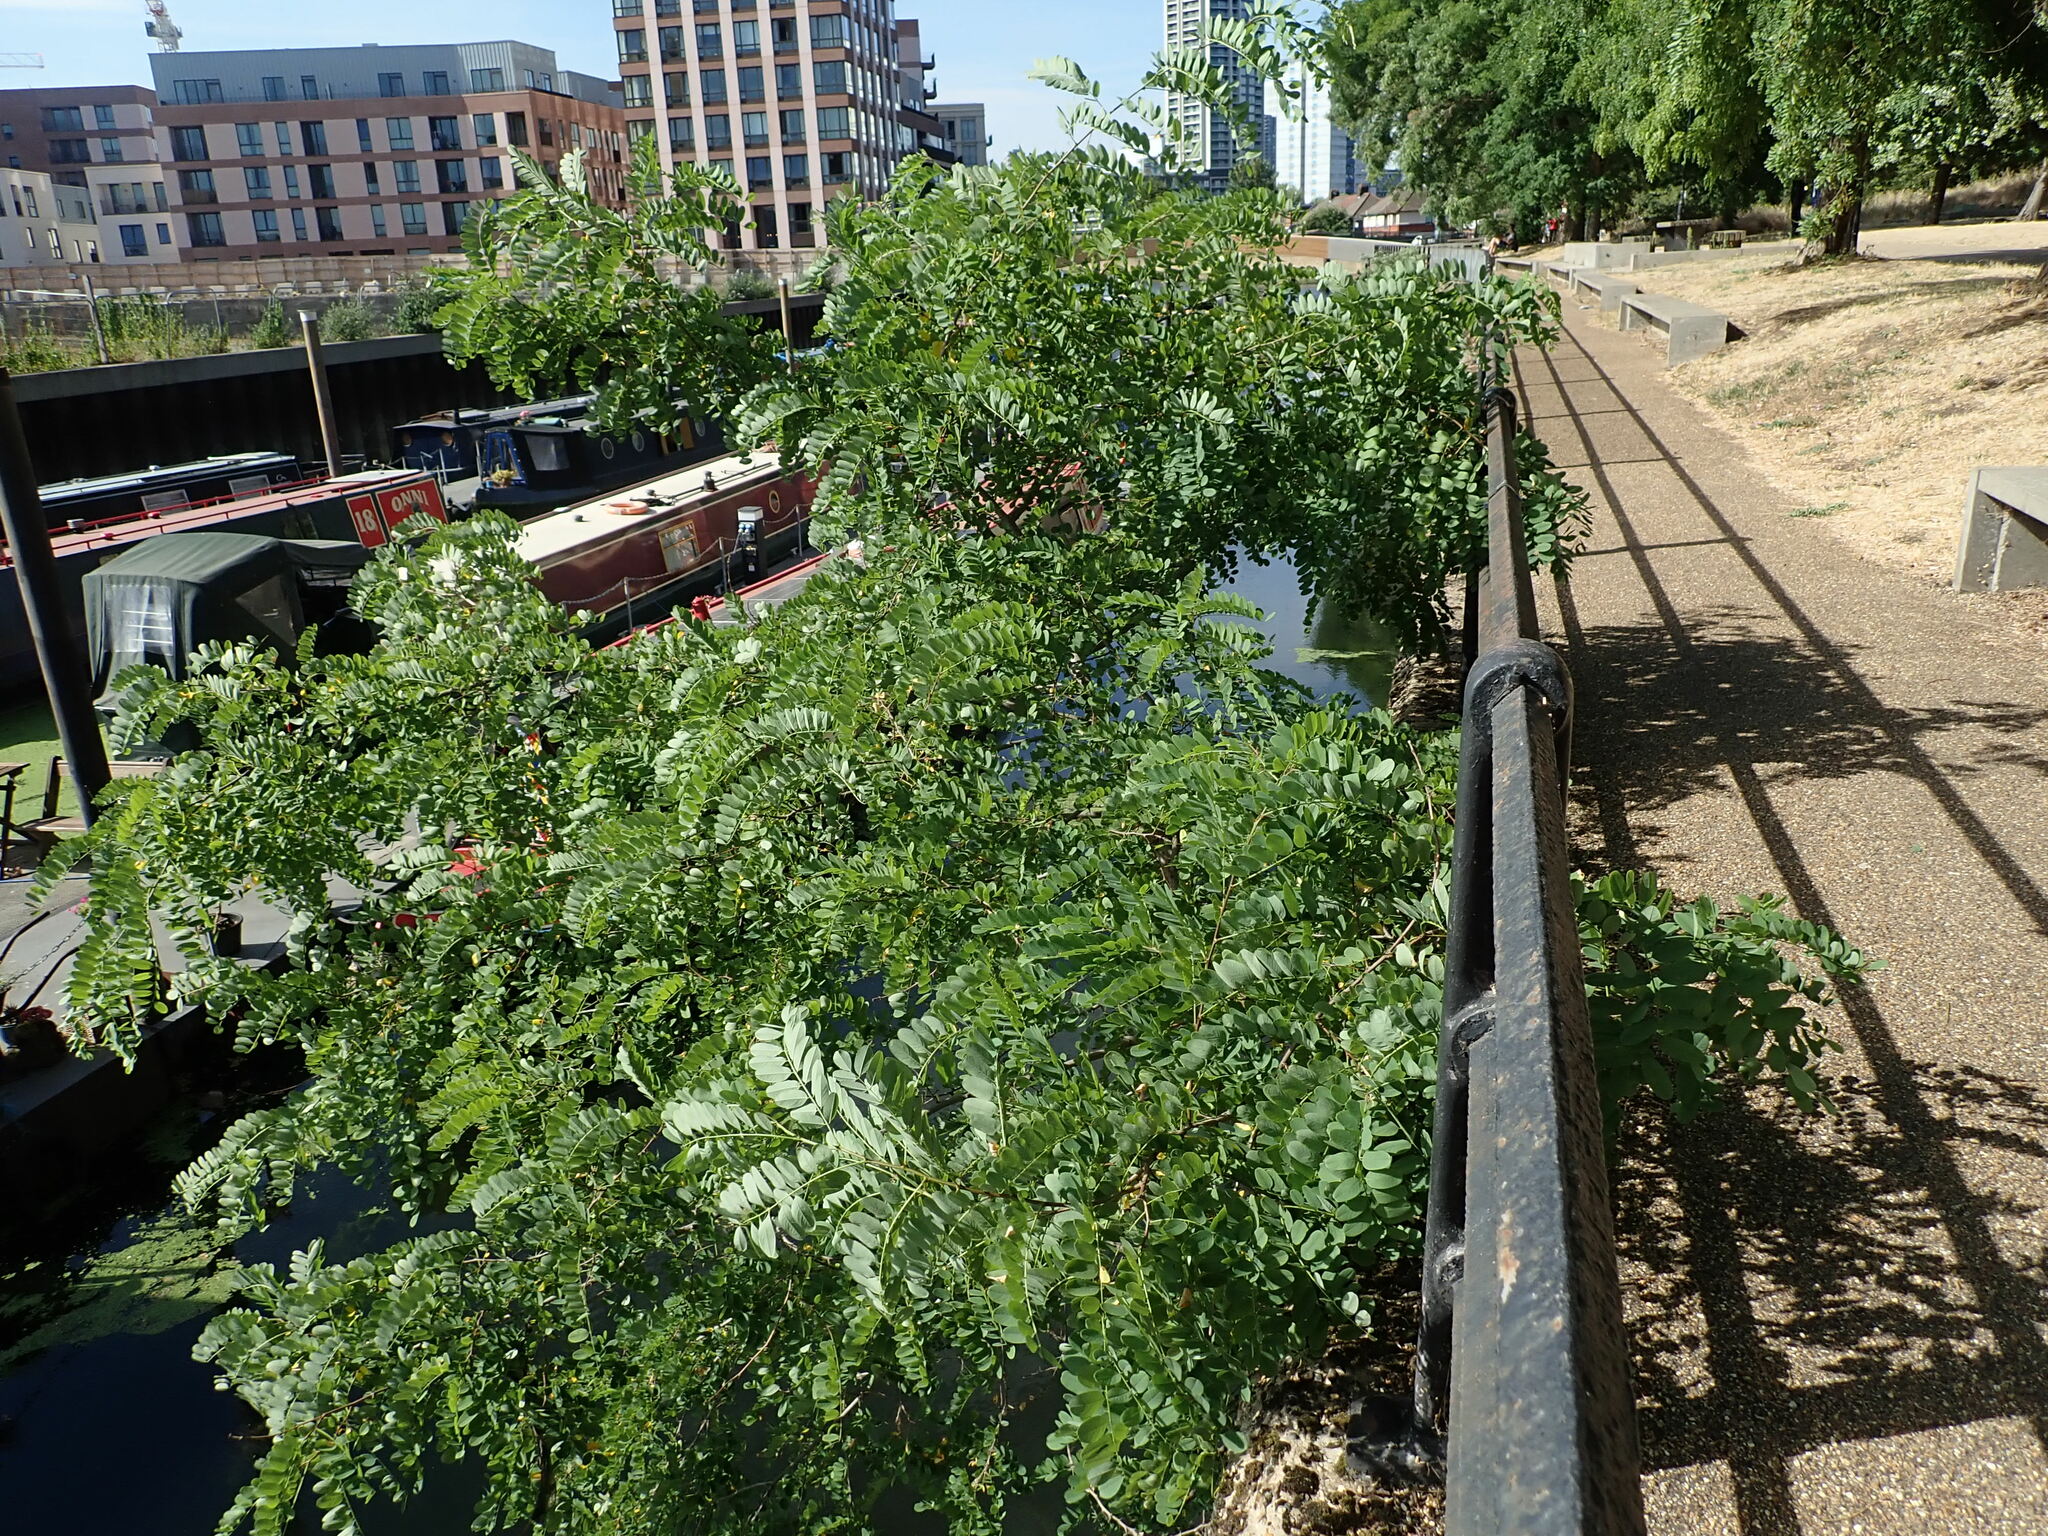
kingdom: Plantae
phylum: Tracheophyta
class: Magnoliopsida
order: Fabales
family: Fabaceae
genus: Robinia
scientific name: Robinia pseudoacacia
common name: Black locust
